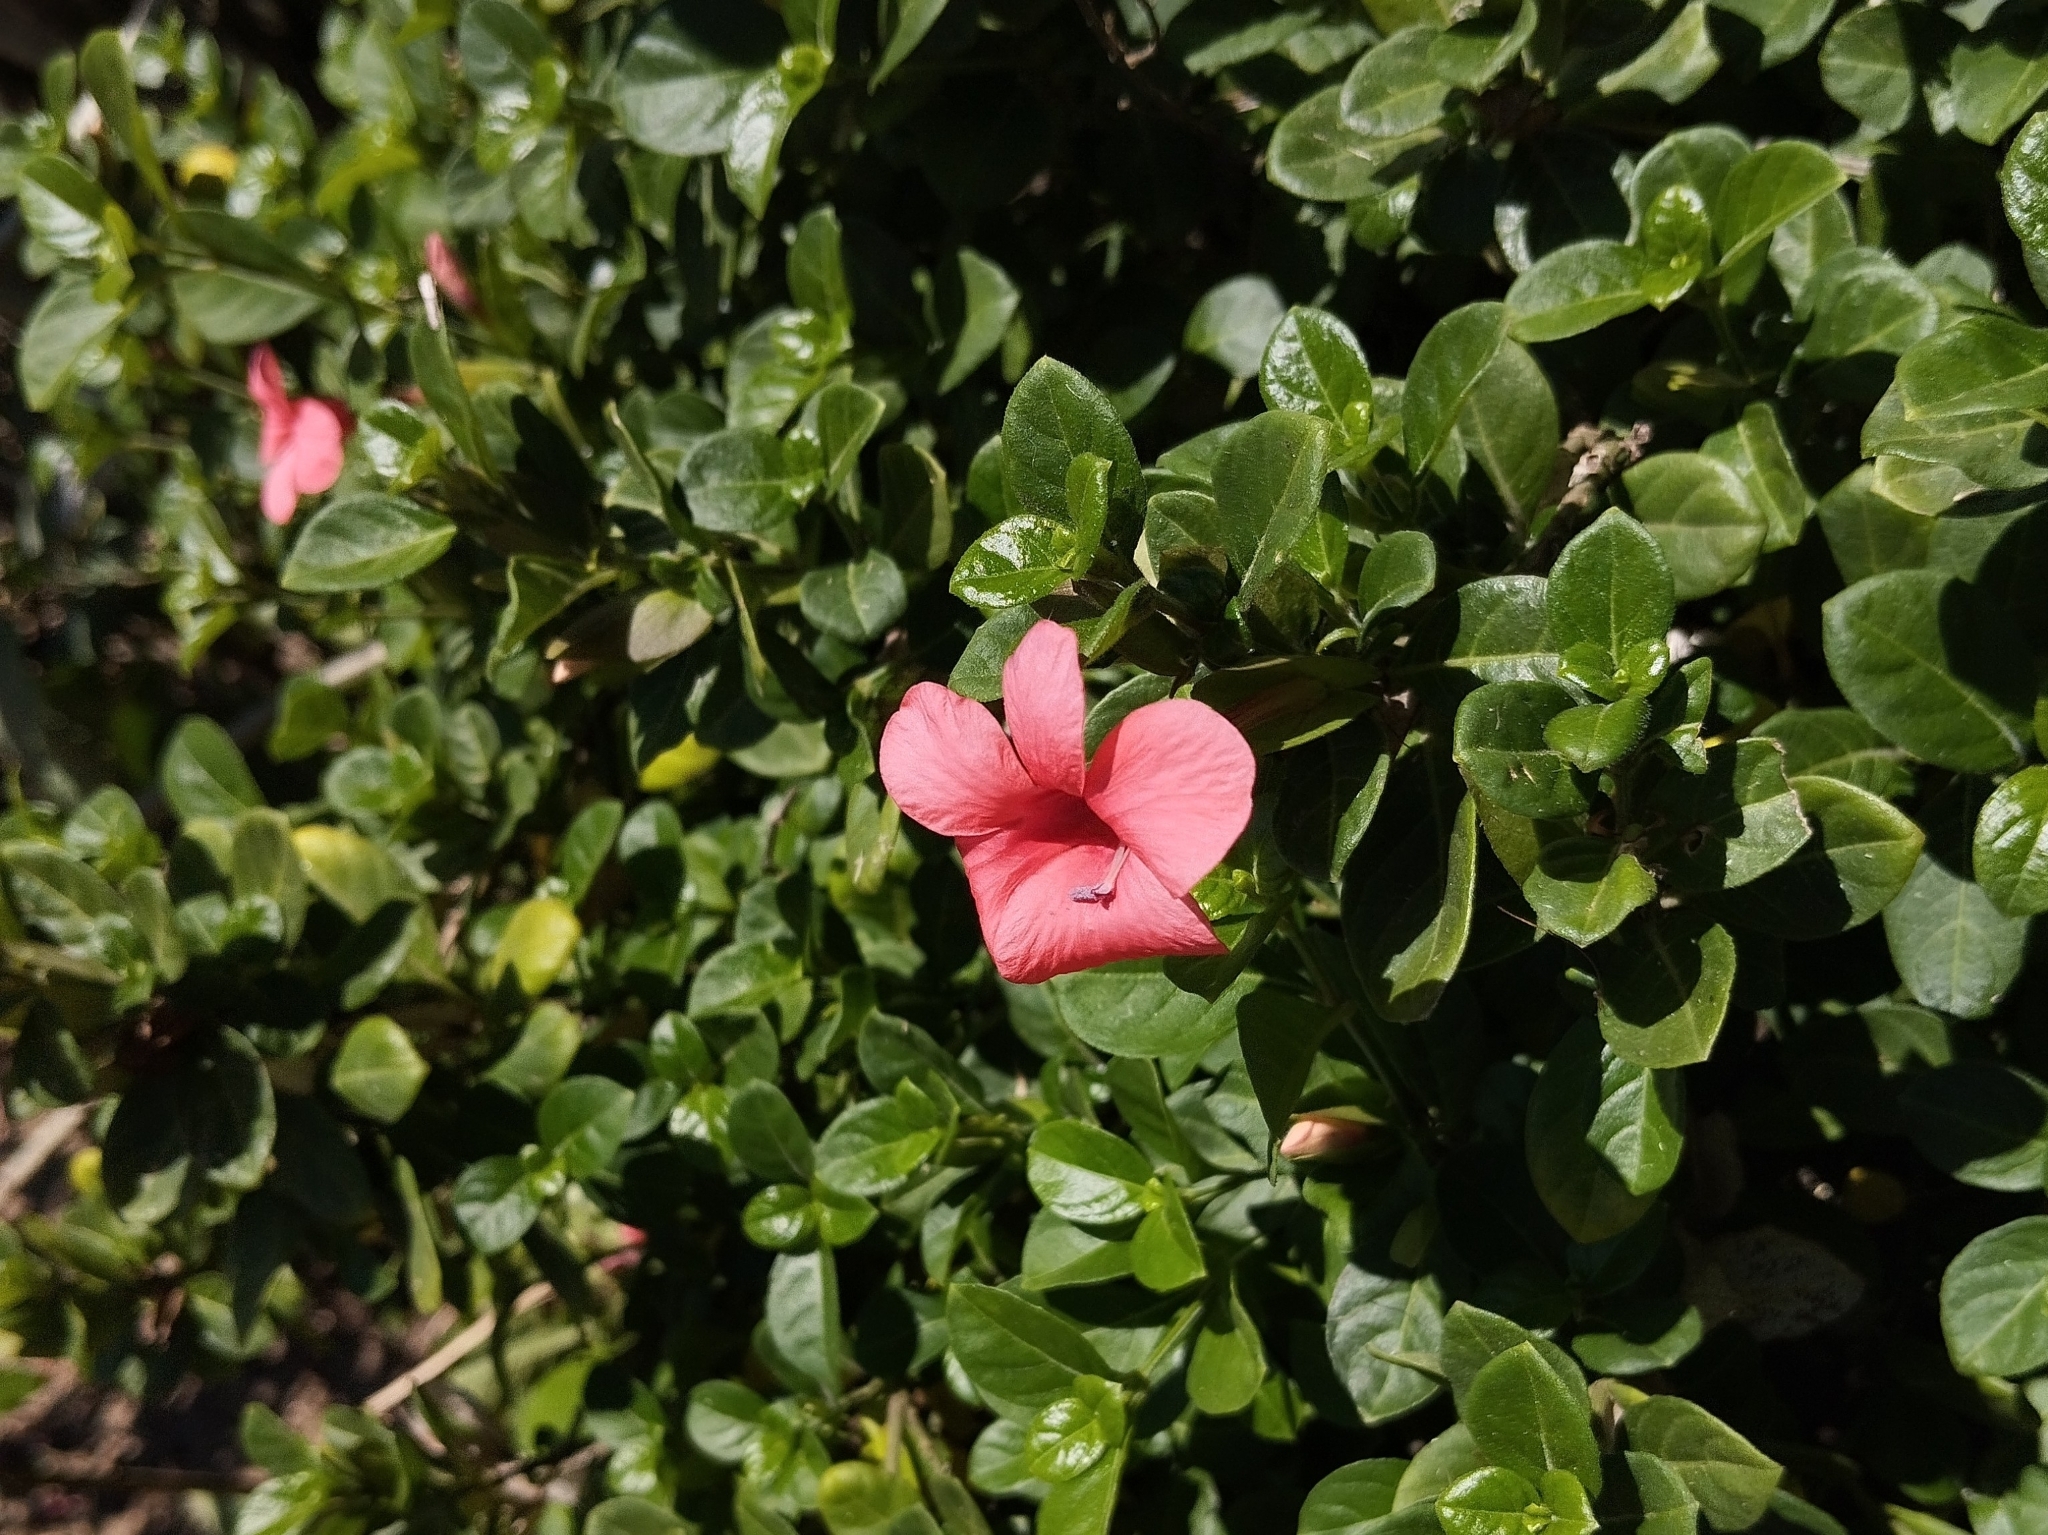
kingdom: Plantae
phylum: Tracheophyta
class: Magnoliopsida
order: Lamiales
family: Acanthaceae
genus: Barleria
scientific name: Barleria repens
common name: Pink-ruellia
